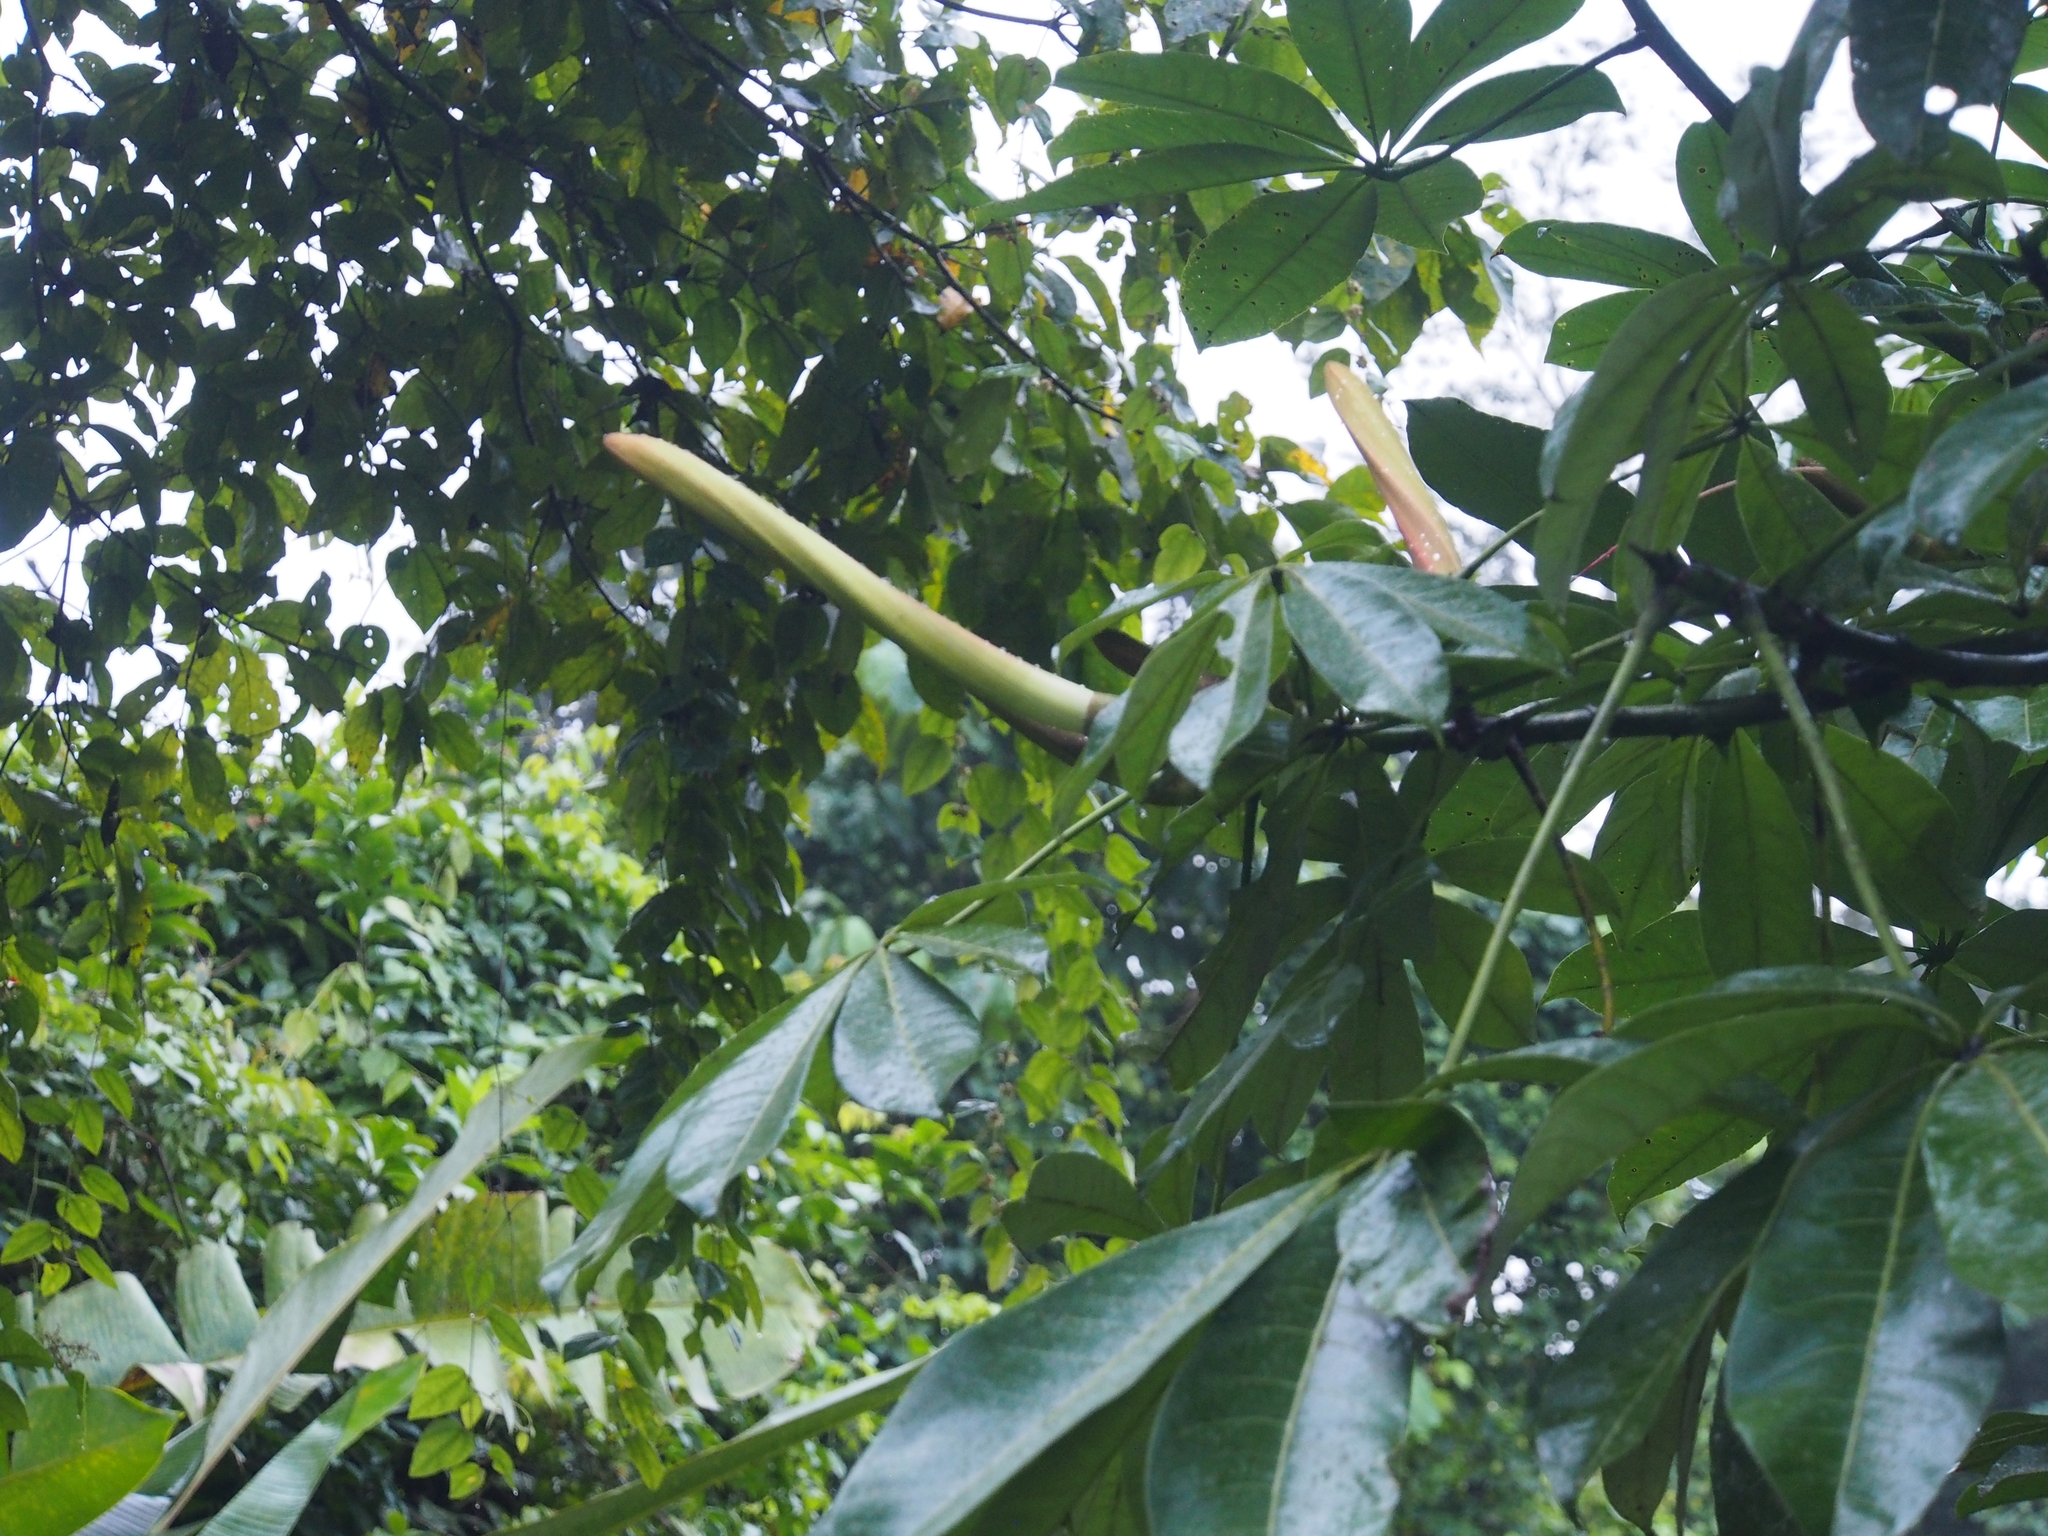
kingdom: Plantae
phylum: Tracheophyta
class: Magnoliopsida
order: Malvales
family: Malvaceae
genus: Pachira
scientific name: Pachira aquatica
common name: Provision-tree
